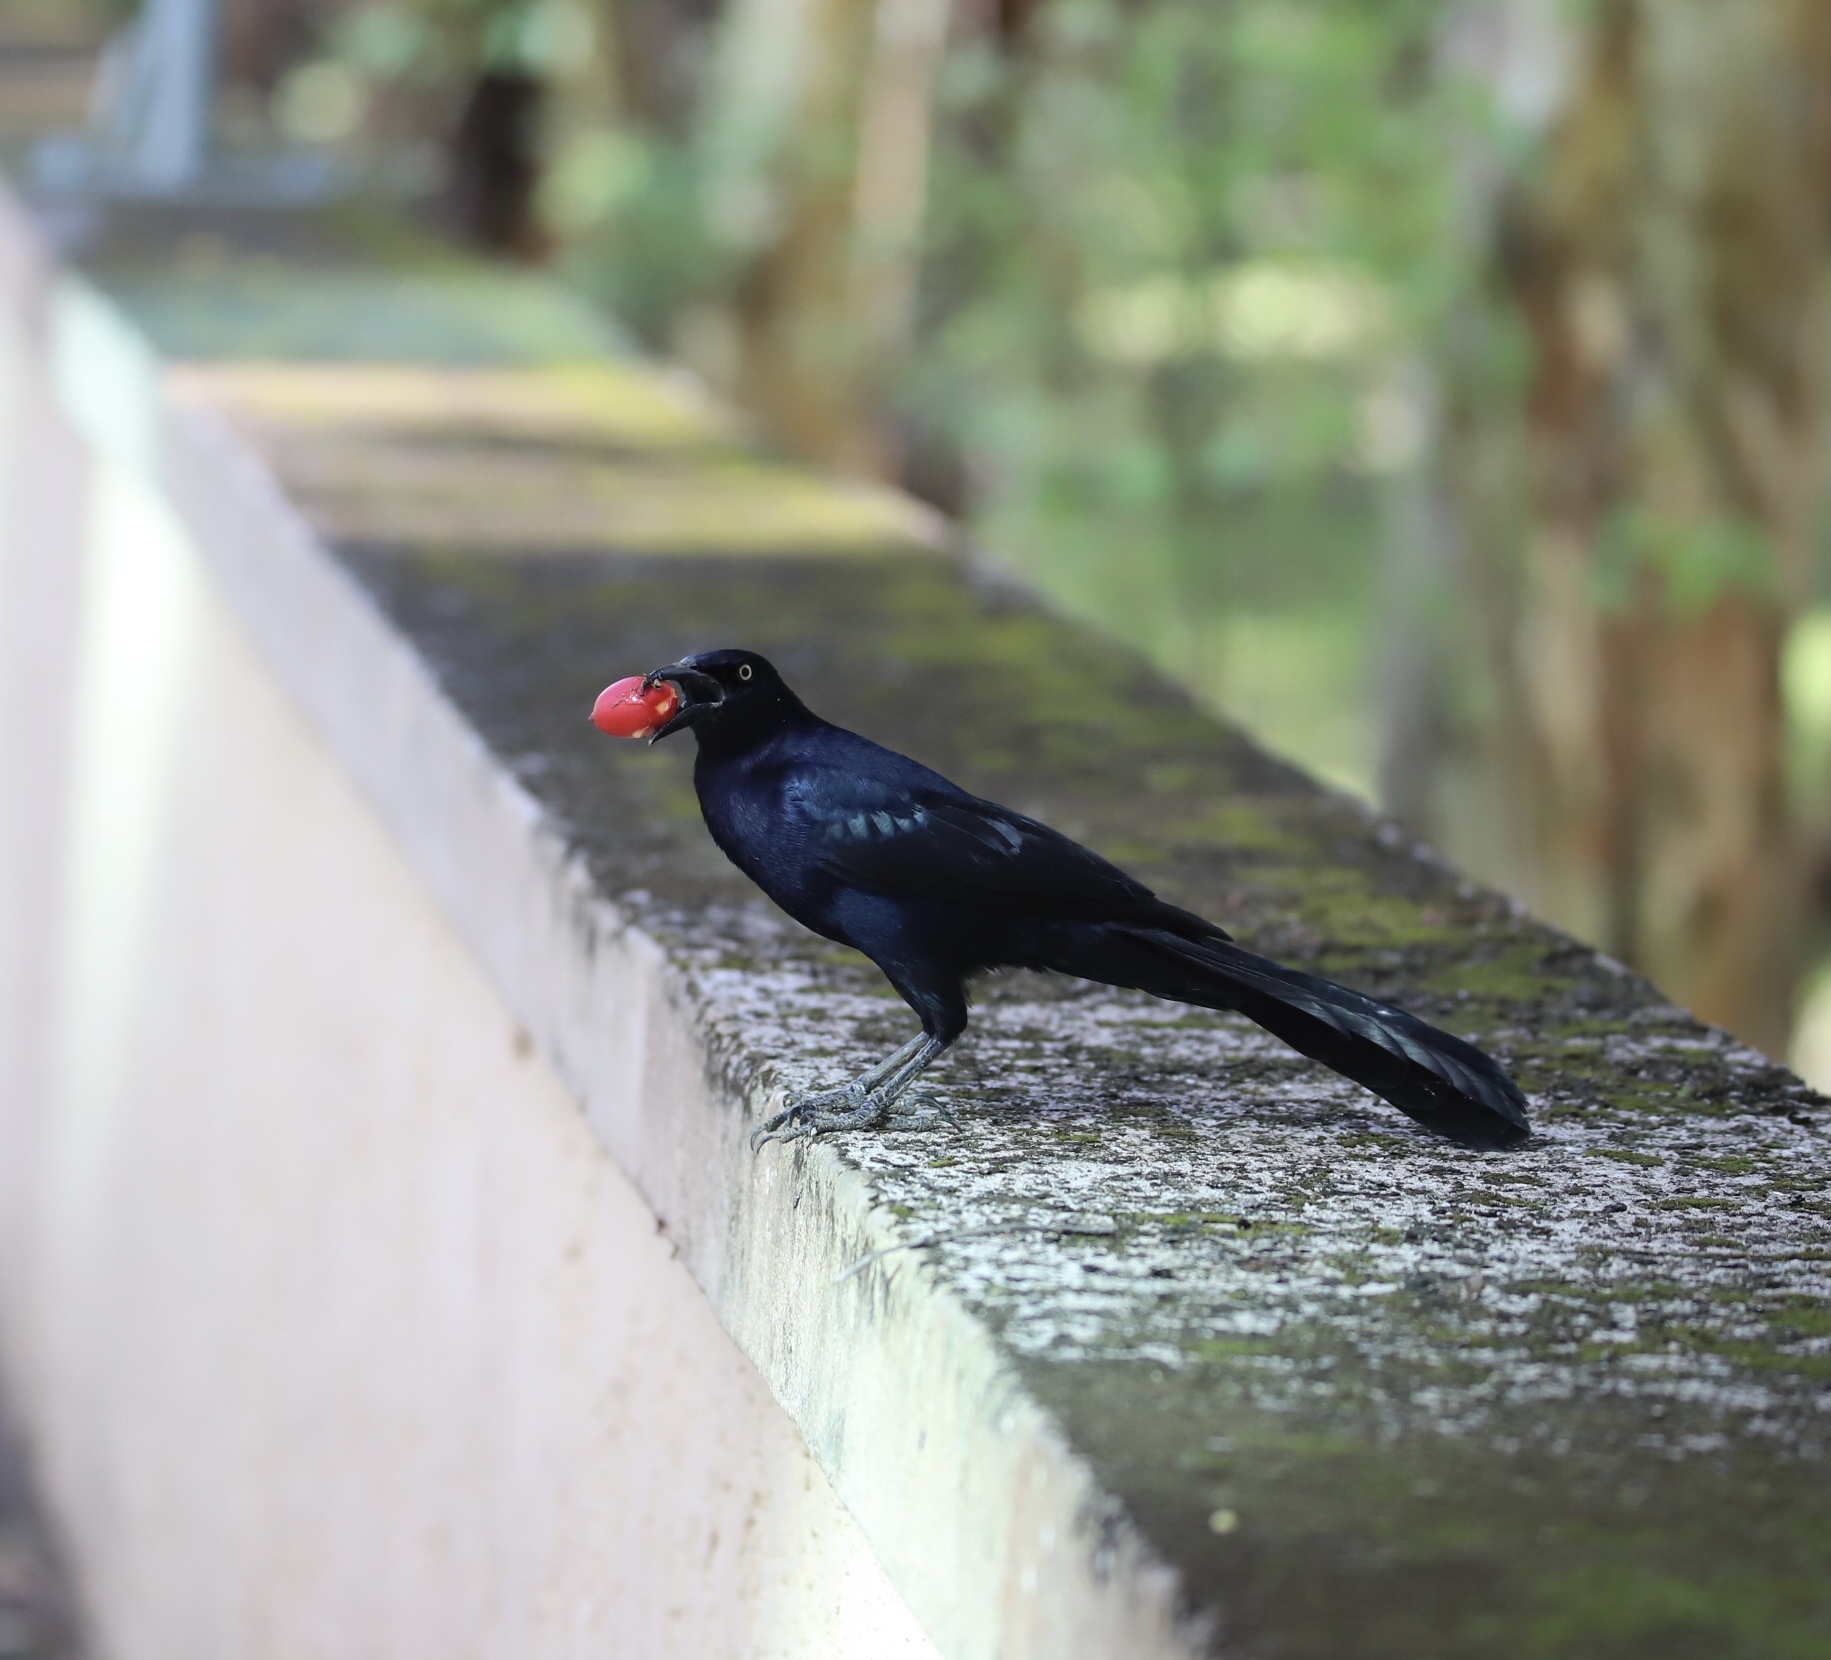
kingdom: Animalia
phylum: Chordata
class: Aves
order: Passeriformes
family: Icteridae
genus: Quiscalus
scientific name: Quiscalus mexicanus
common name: Great-tailed grackle
